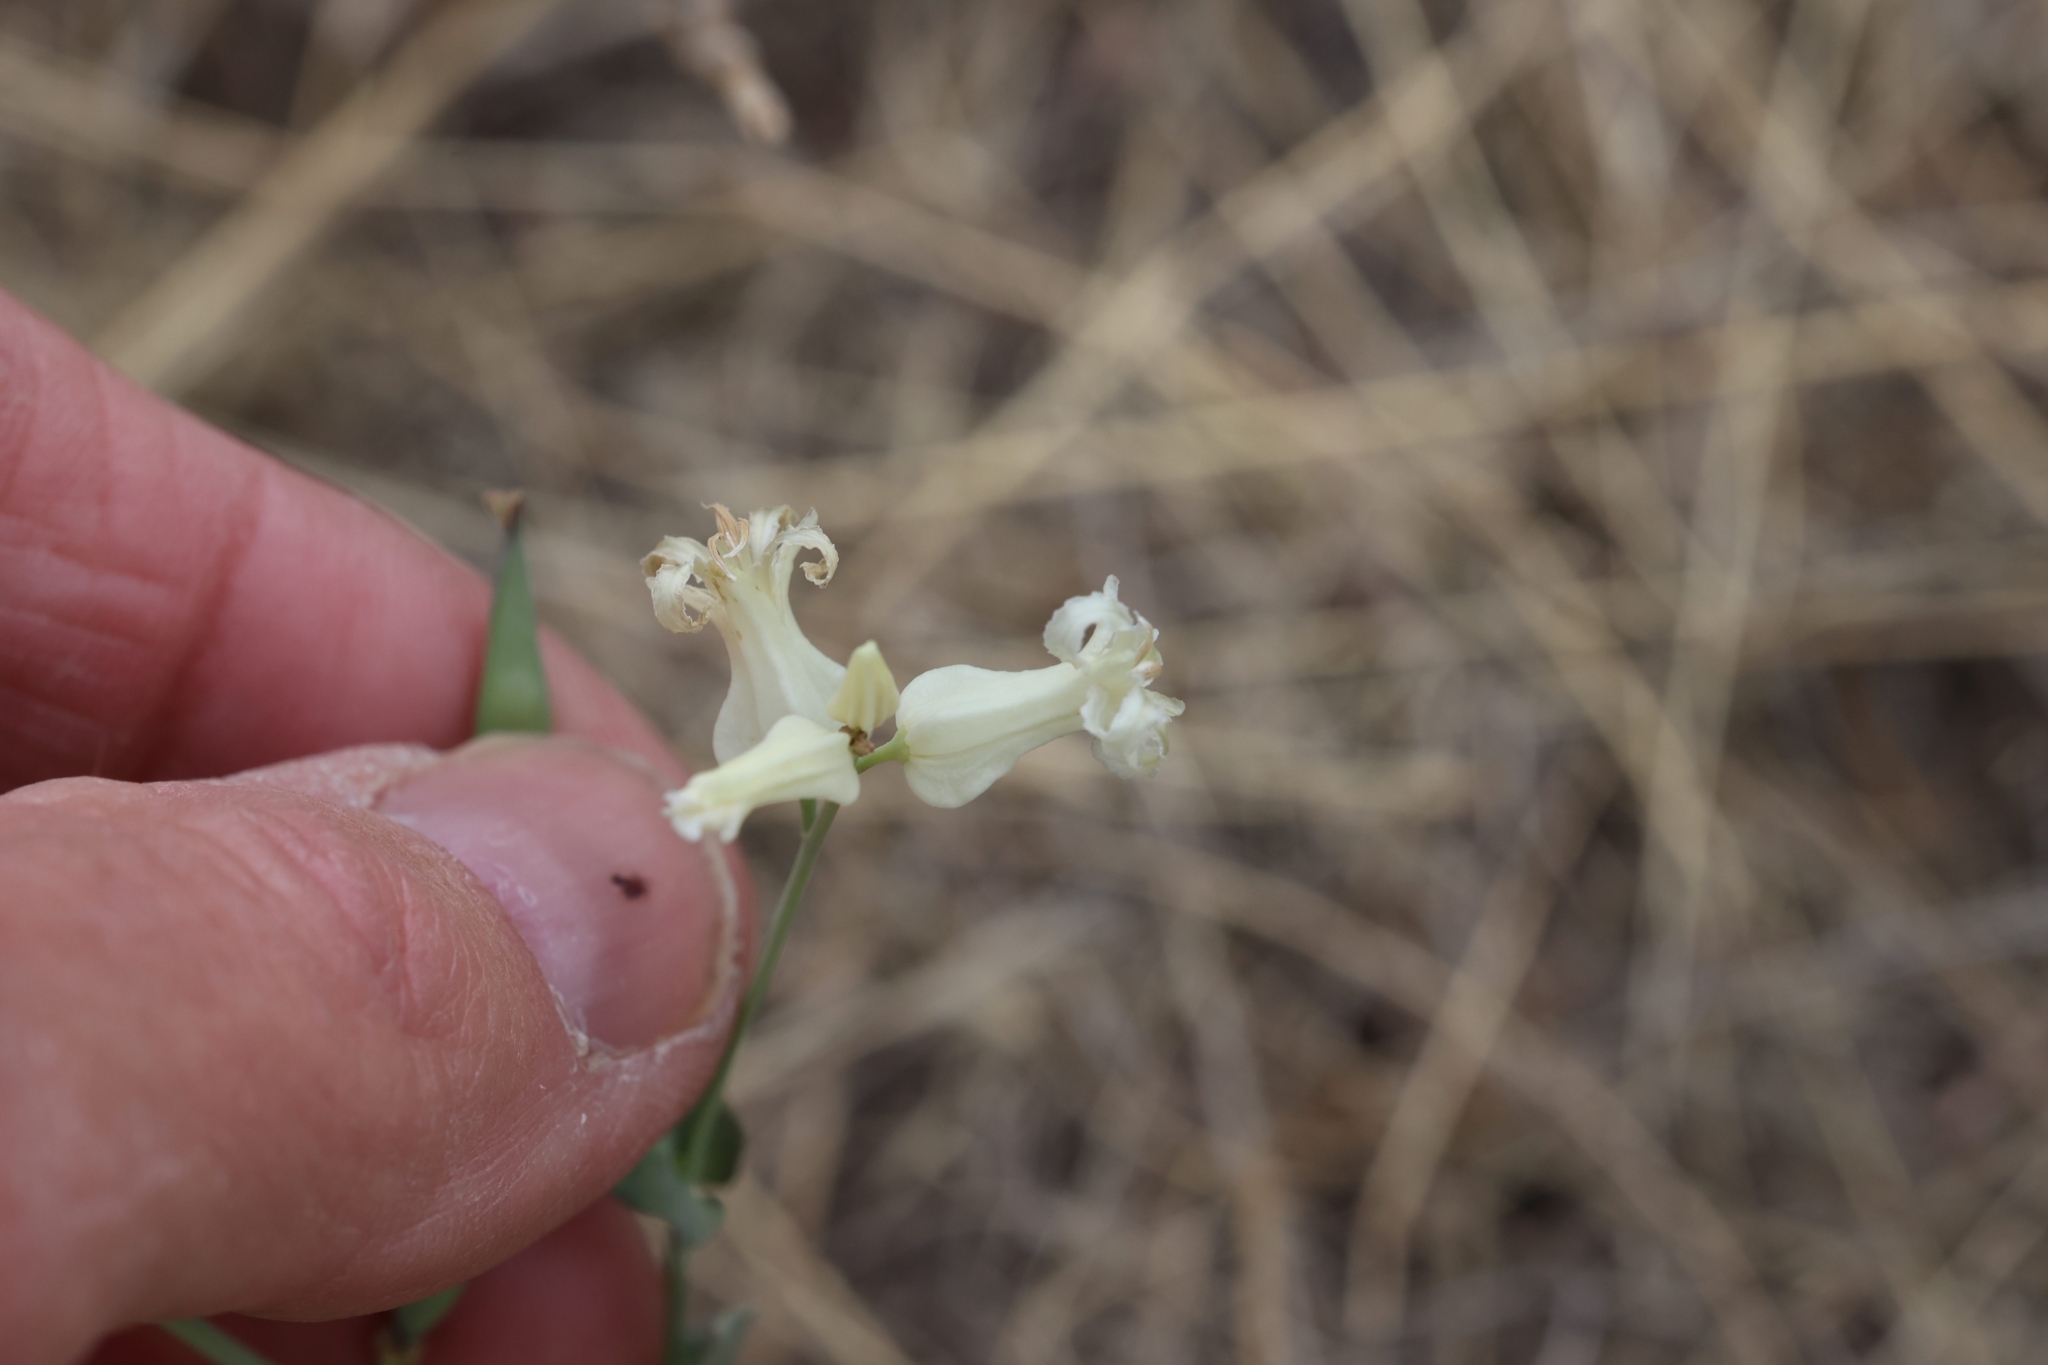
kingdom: Plantae
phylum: Tracheophyta
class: Magnoliopsida
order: Brassicales
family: Brassicaceae
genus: Streptanthus
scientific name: Streptanthus carinatus
